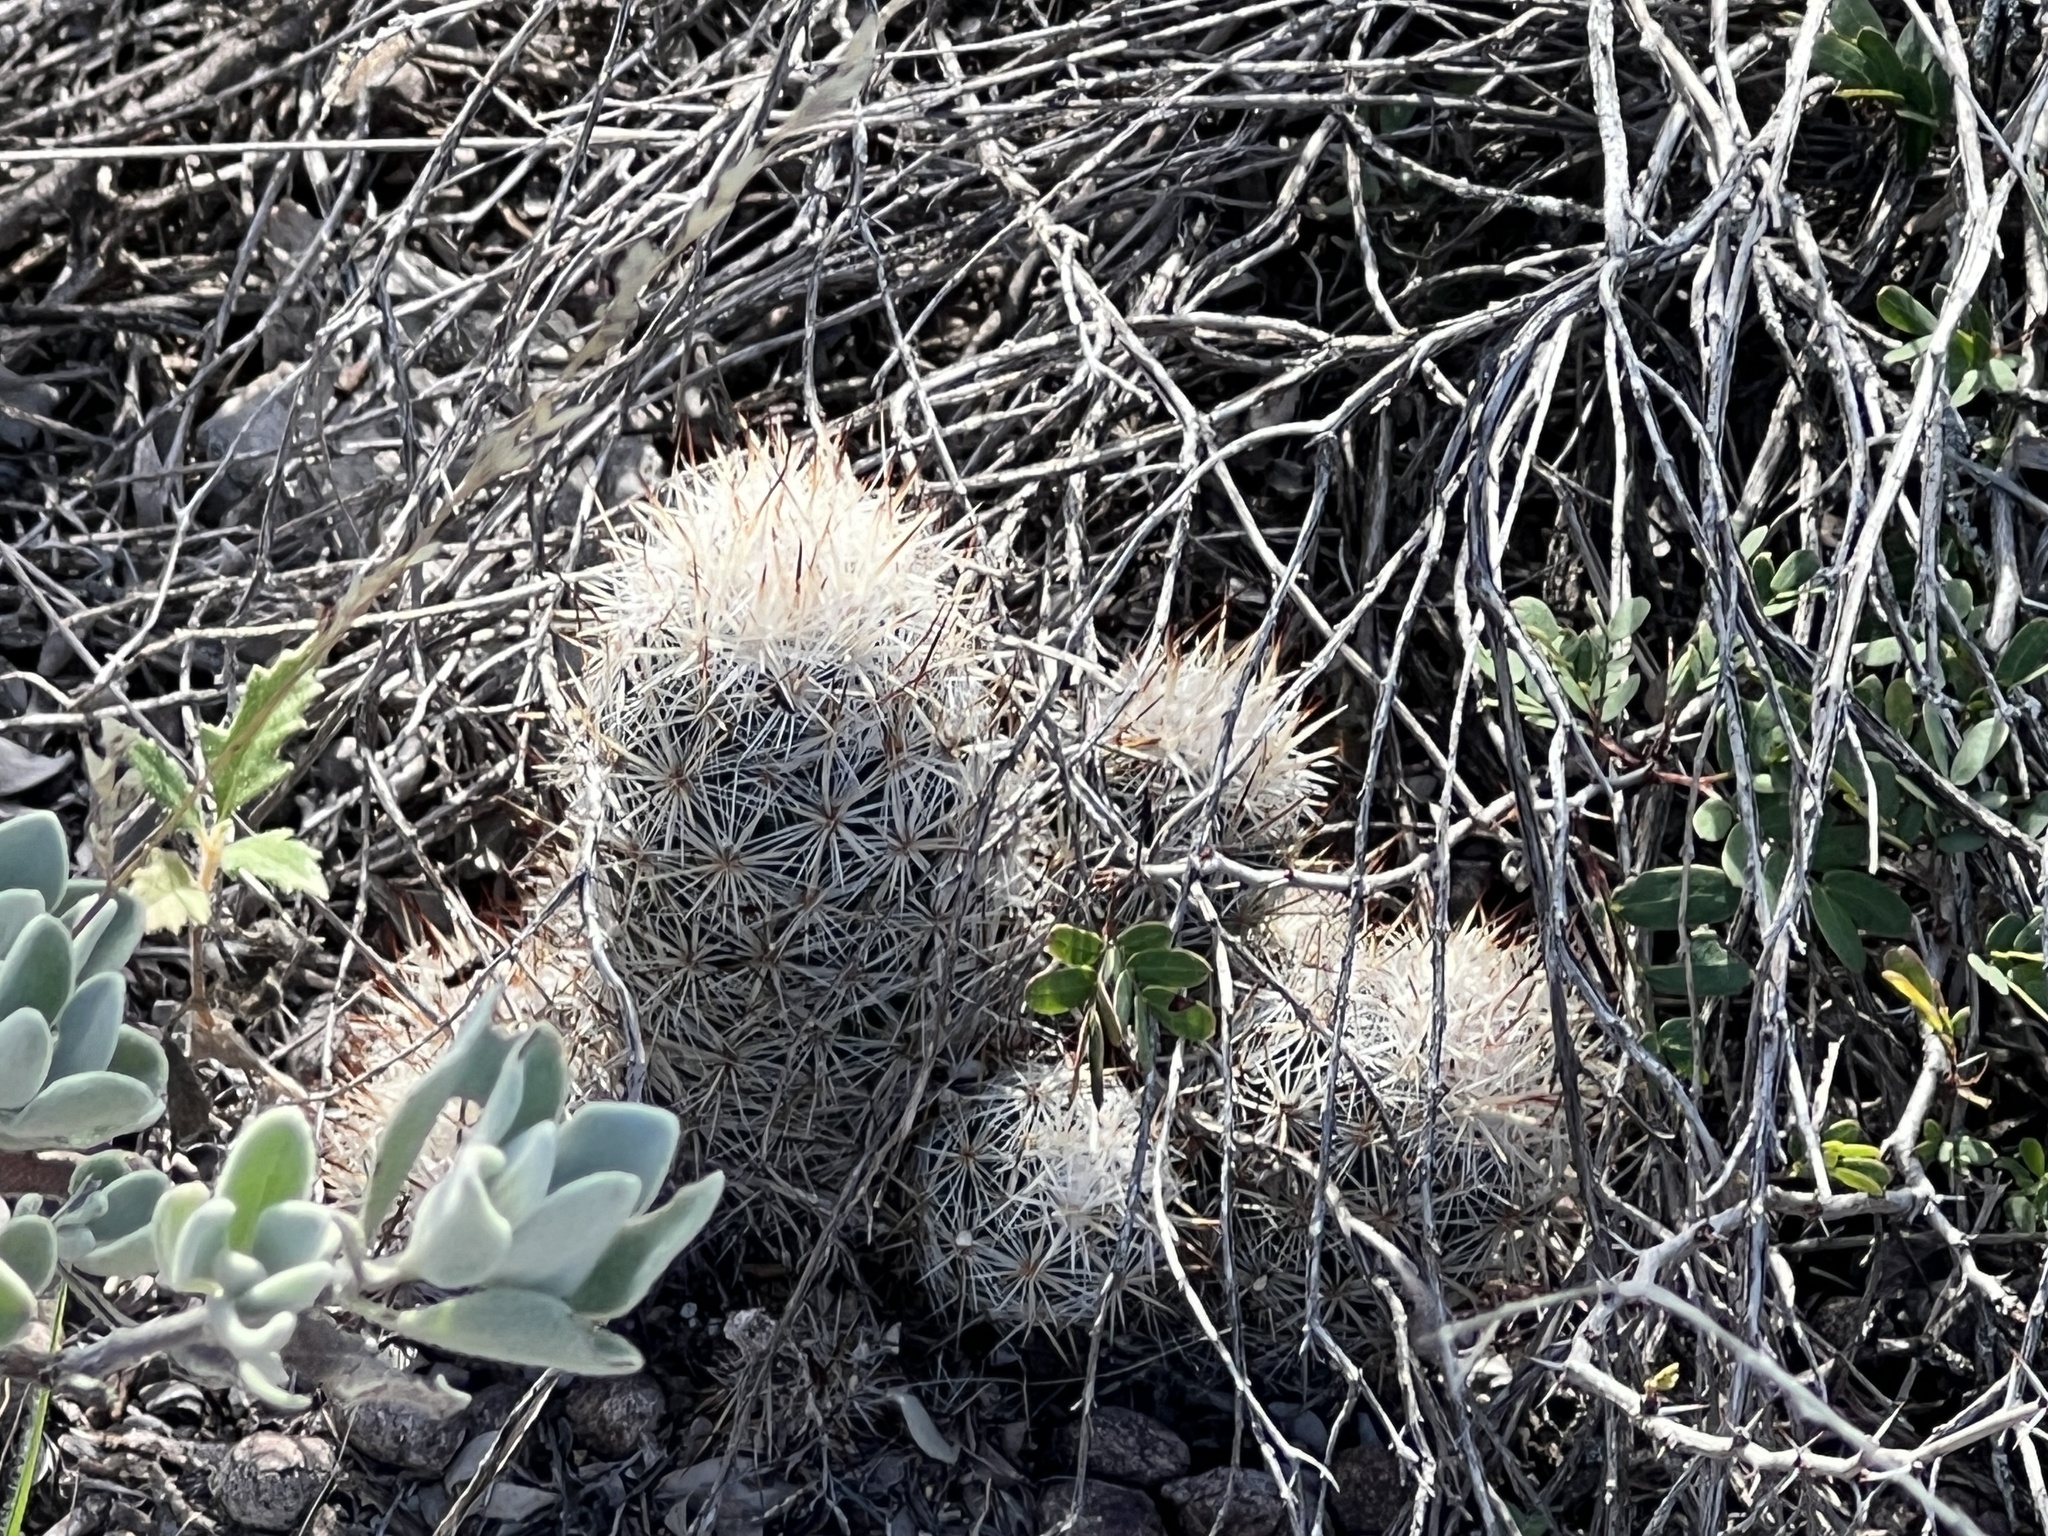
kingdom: Plantae
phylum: Tracheophyta
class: Magnoliopsida
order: Caryophyllales
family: Cactaceae
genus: Pelecyphora
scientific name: Pelecyphora emskoetteriana
